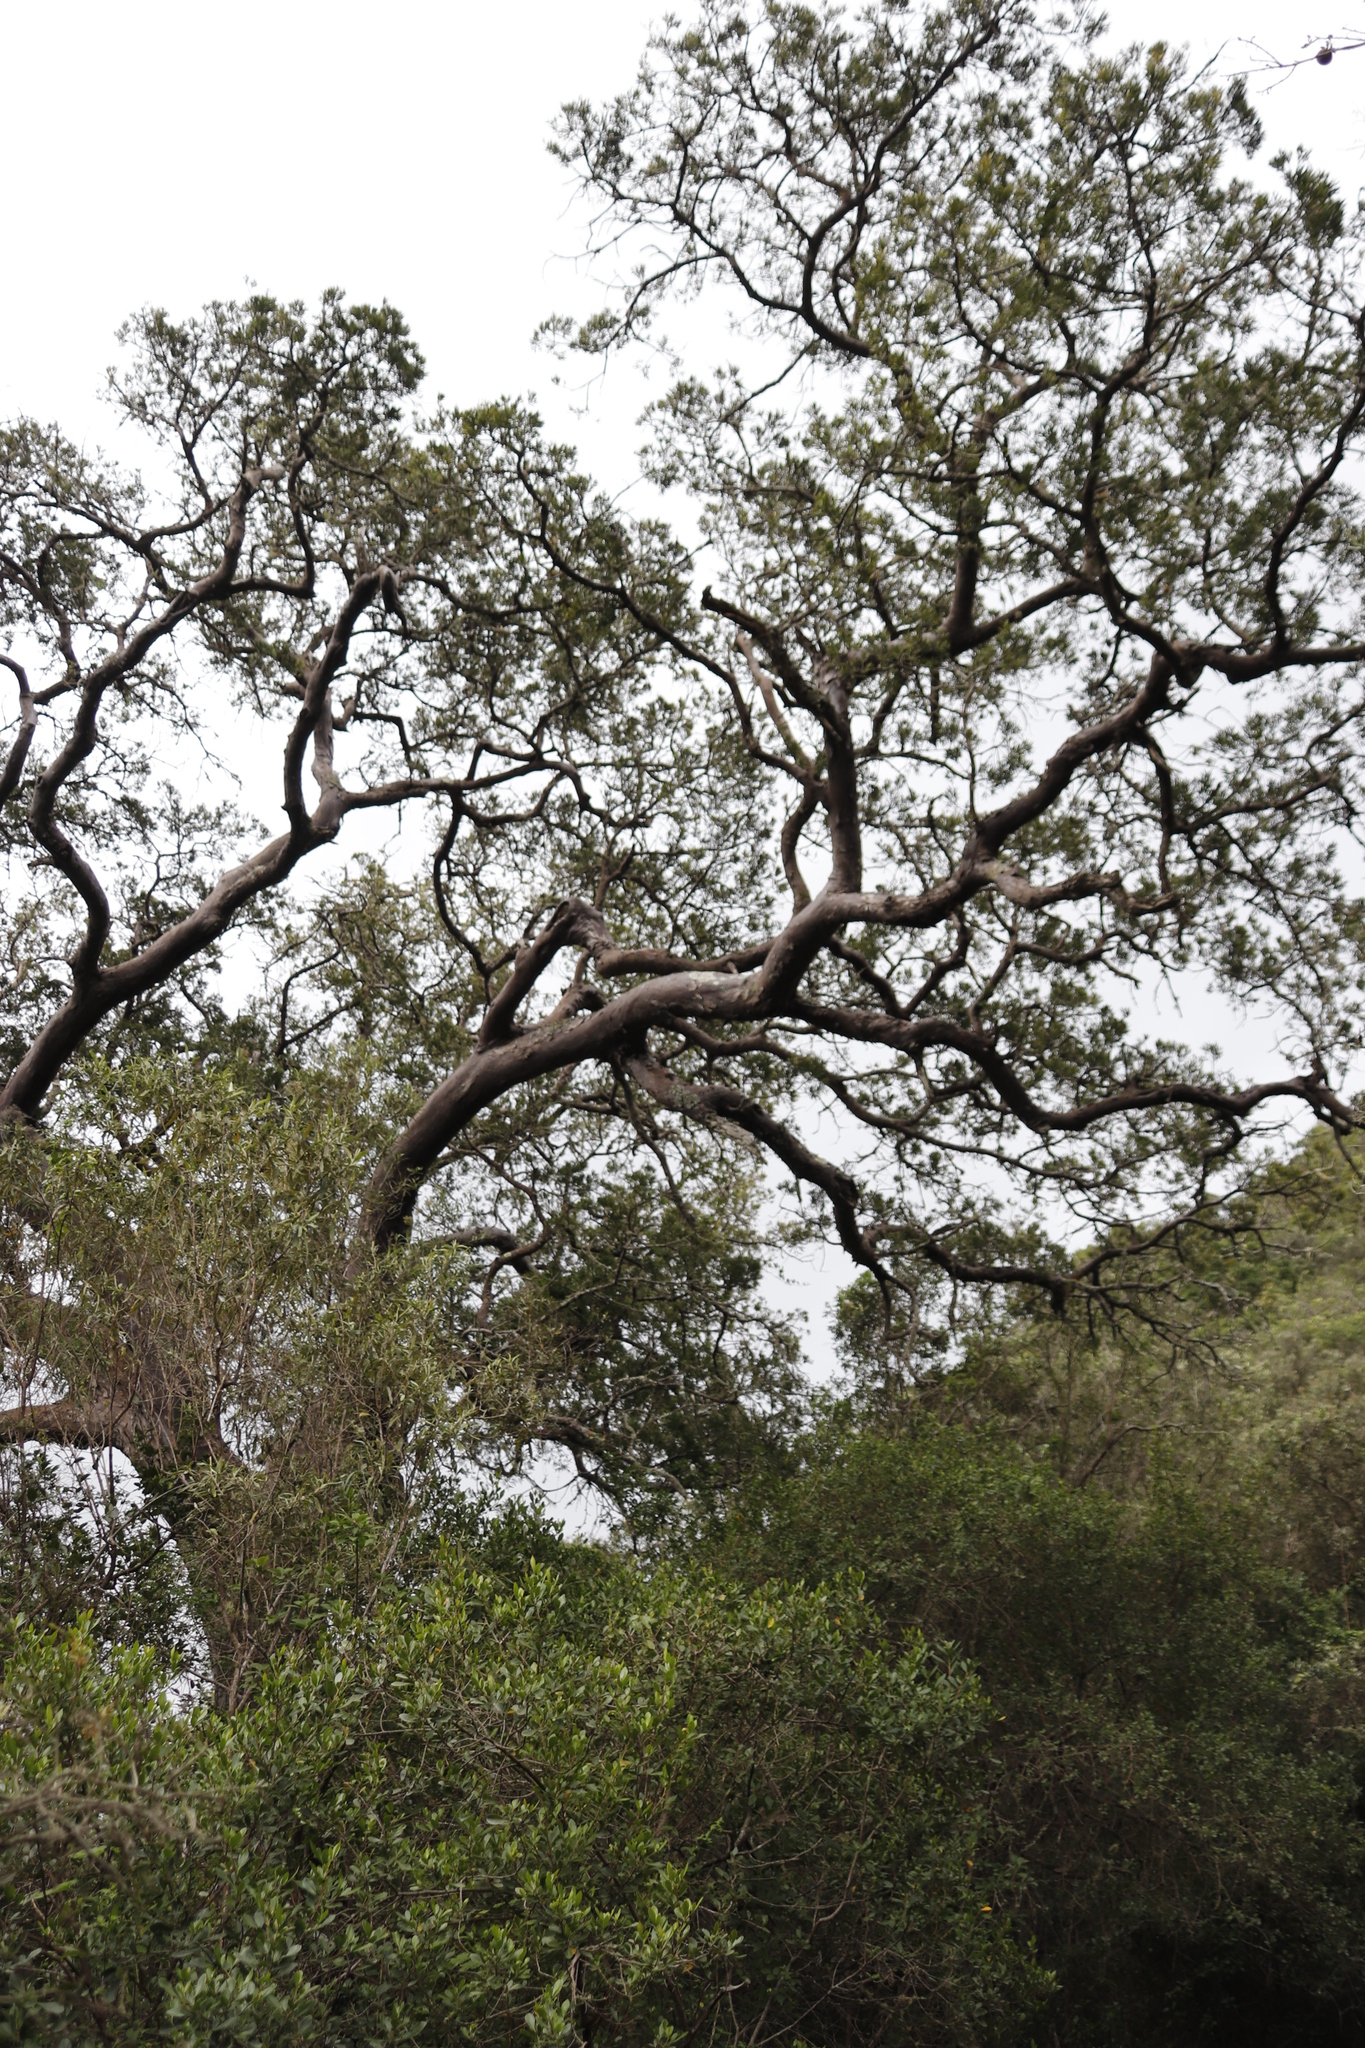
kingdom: Plantae
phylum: Tracheophyta
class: Pinopsida
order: Pinales
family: Podocarpaceae
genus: Afrocarpus
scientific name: Afrocarpus falcatus
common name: Bastard yellowwood
